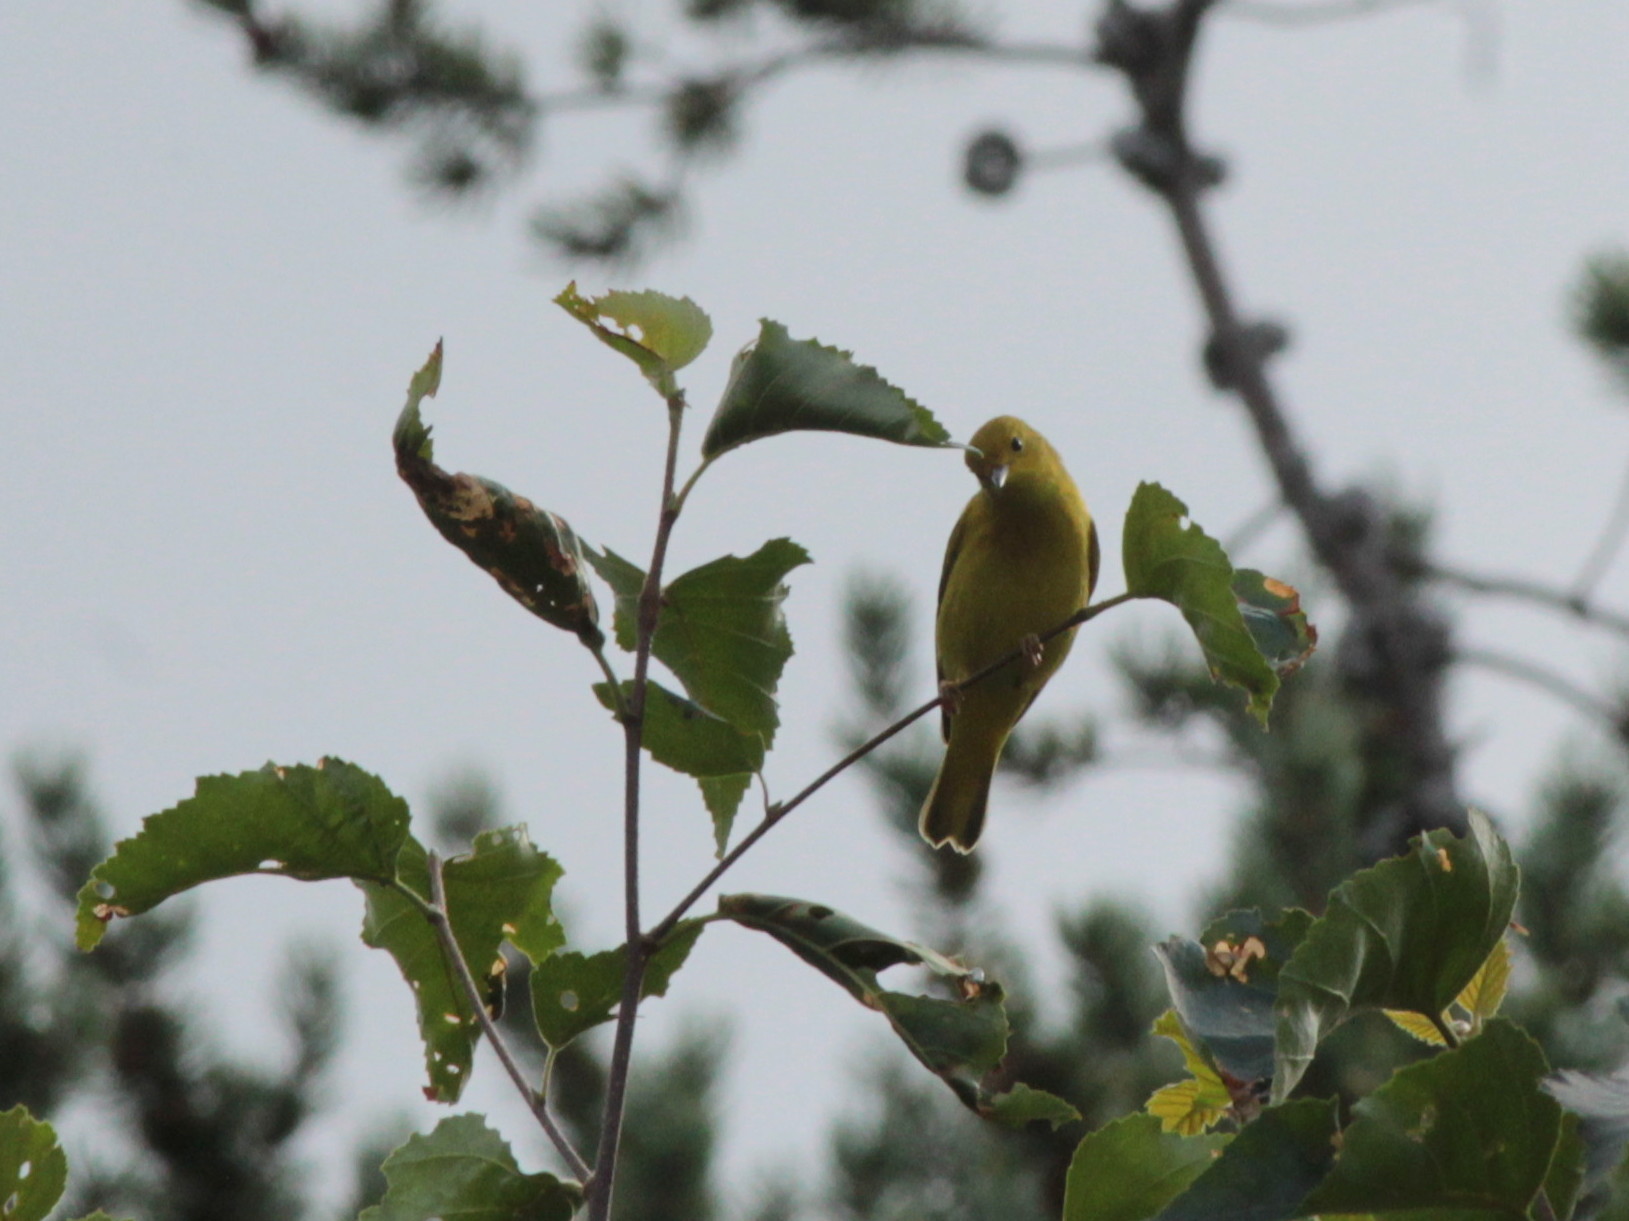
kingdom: Animalia
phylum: Chordata
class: Aves
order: Passeriformes
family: Parulidae
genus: Setophaga
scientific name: Setophaga petechia
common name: Yellow warbler
